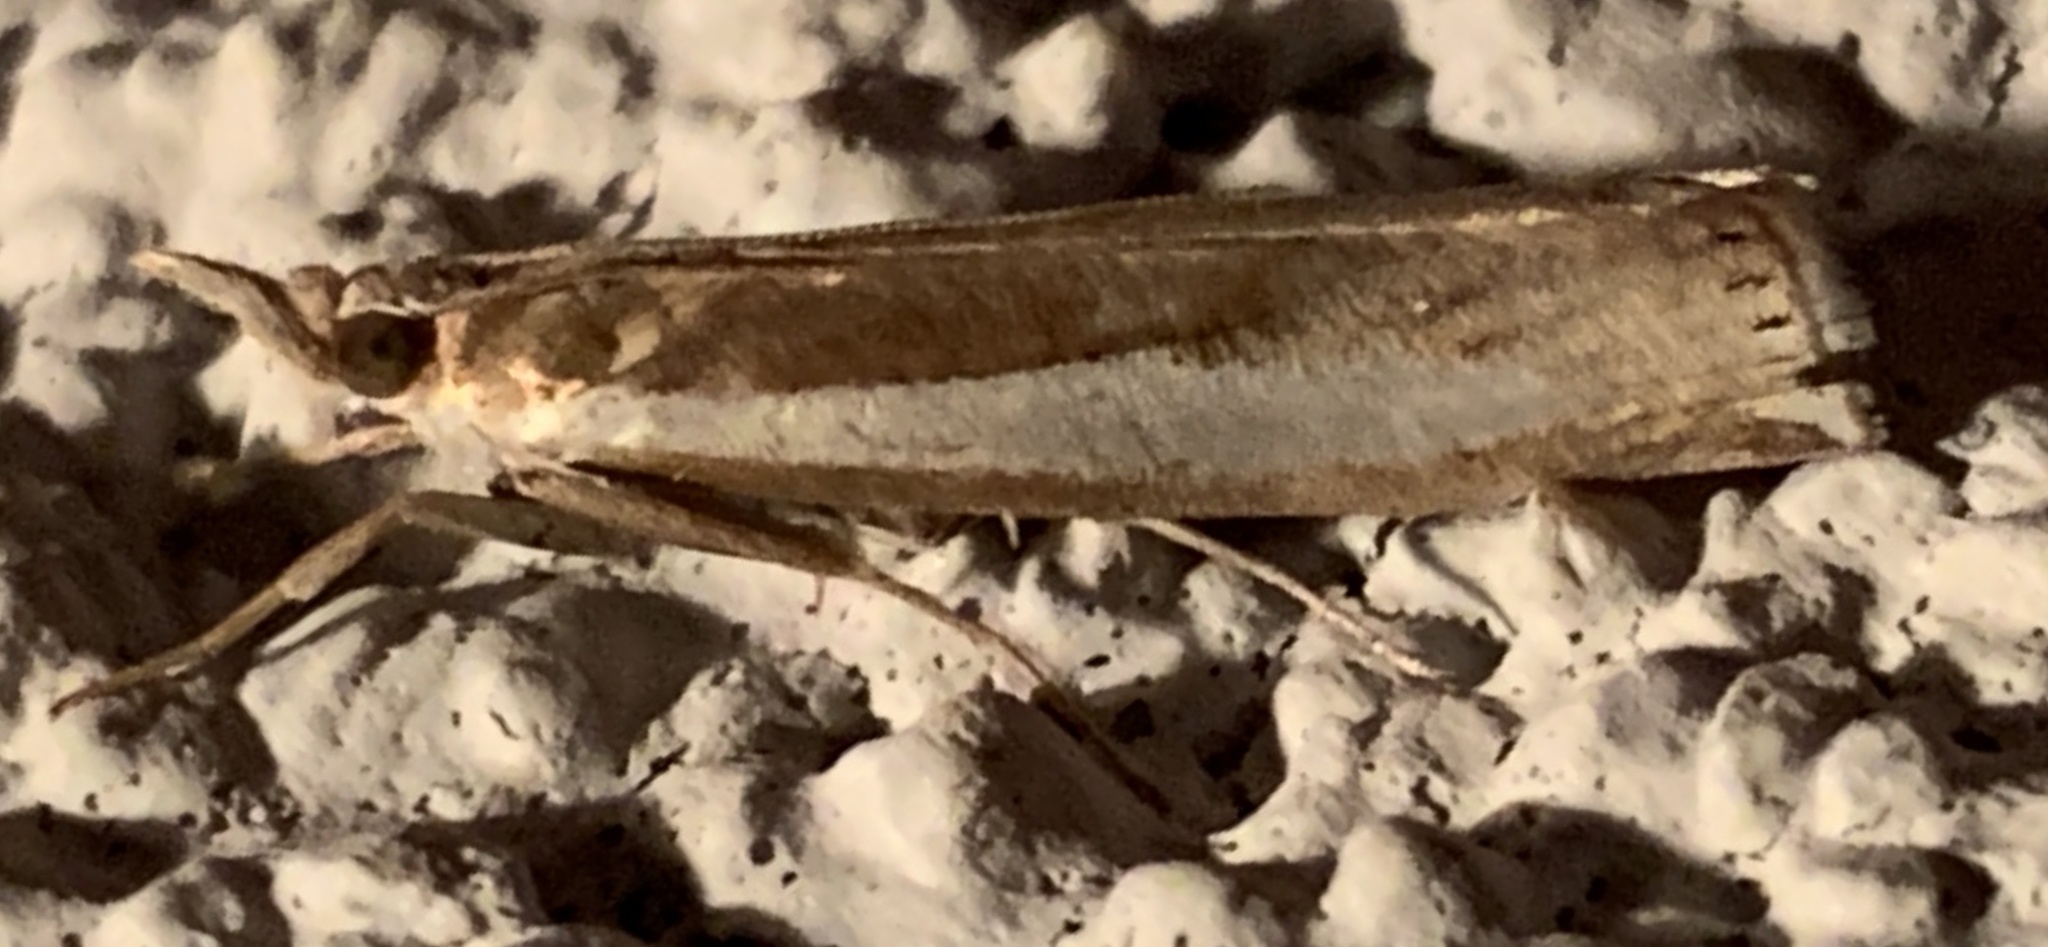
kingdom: Animalia
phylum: Arthropoda
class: Insecta
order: Lepidoptera
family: Crambidae
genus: Crambus
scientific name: Crambus praefectellus
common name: Common grass-veneer
